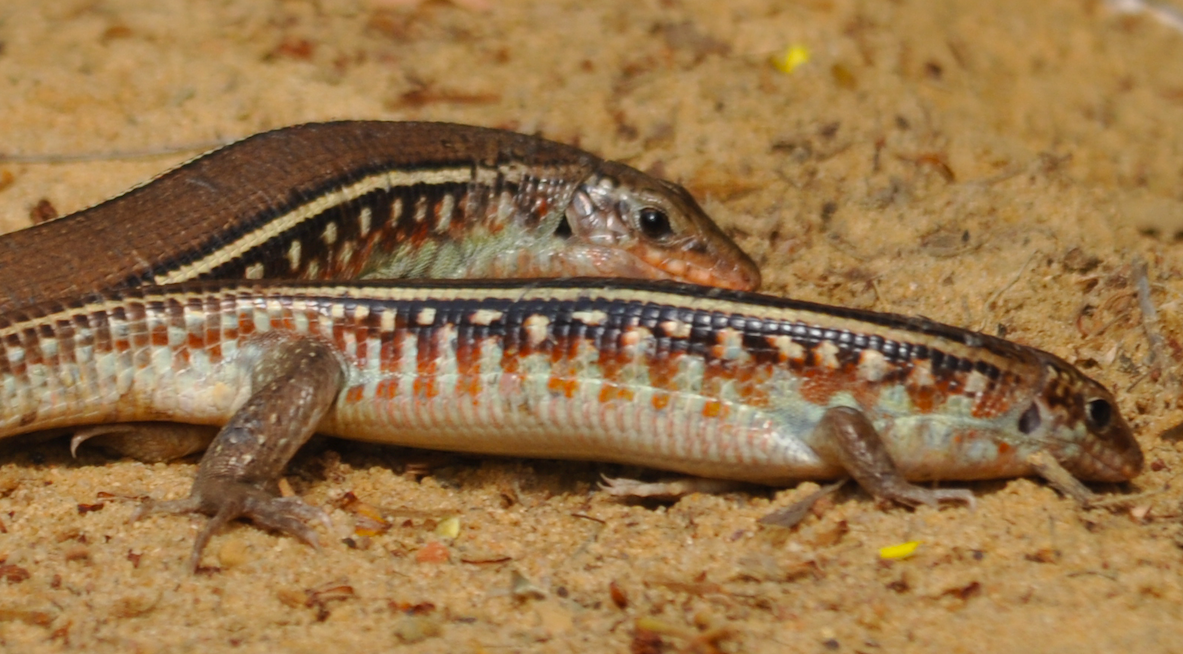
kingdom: Animalia
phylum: Chordata
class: Squamata
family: Gerrhosauridae
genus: Zonosaurus
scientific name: Zonosaurus karsteni
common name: Karsten's girdled lizard
